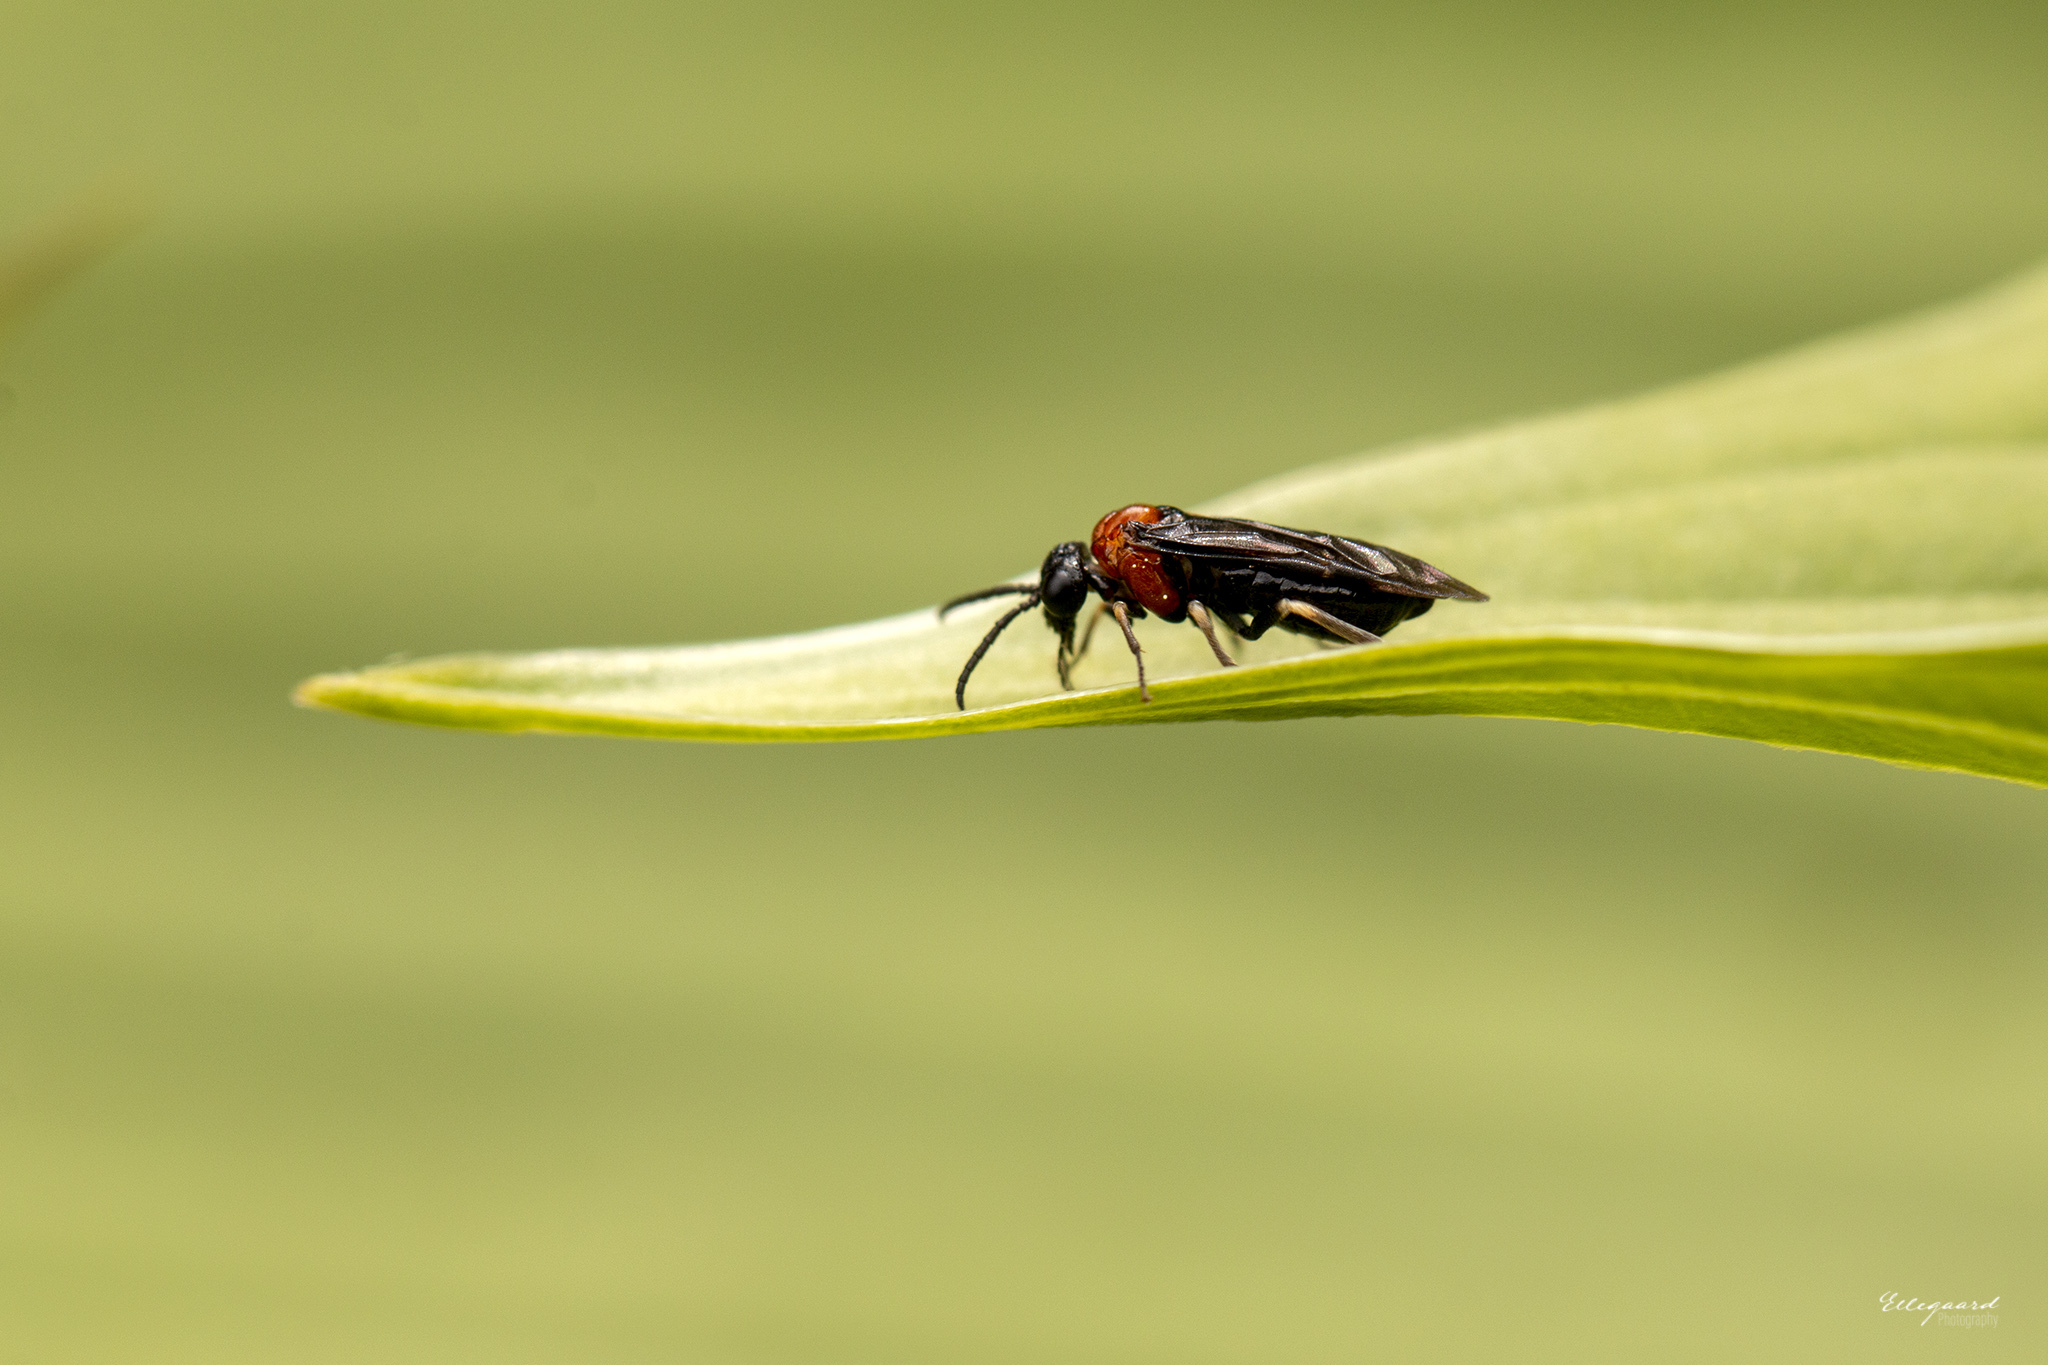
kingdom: Animalia
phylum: Arthropoda
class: Insecta
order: Hymenoptera
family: Tenthredinidae
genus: Eutomostethus
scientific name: Eutomostethus ephippium
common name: Tenthredid wasp
